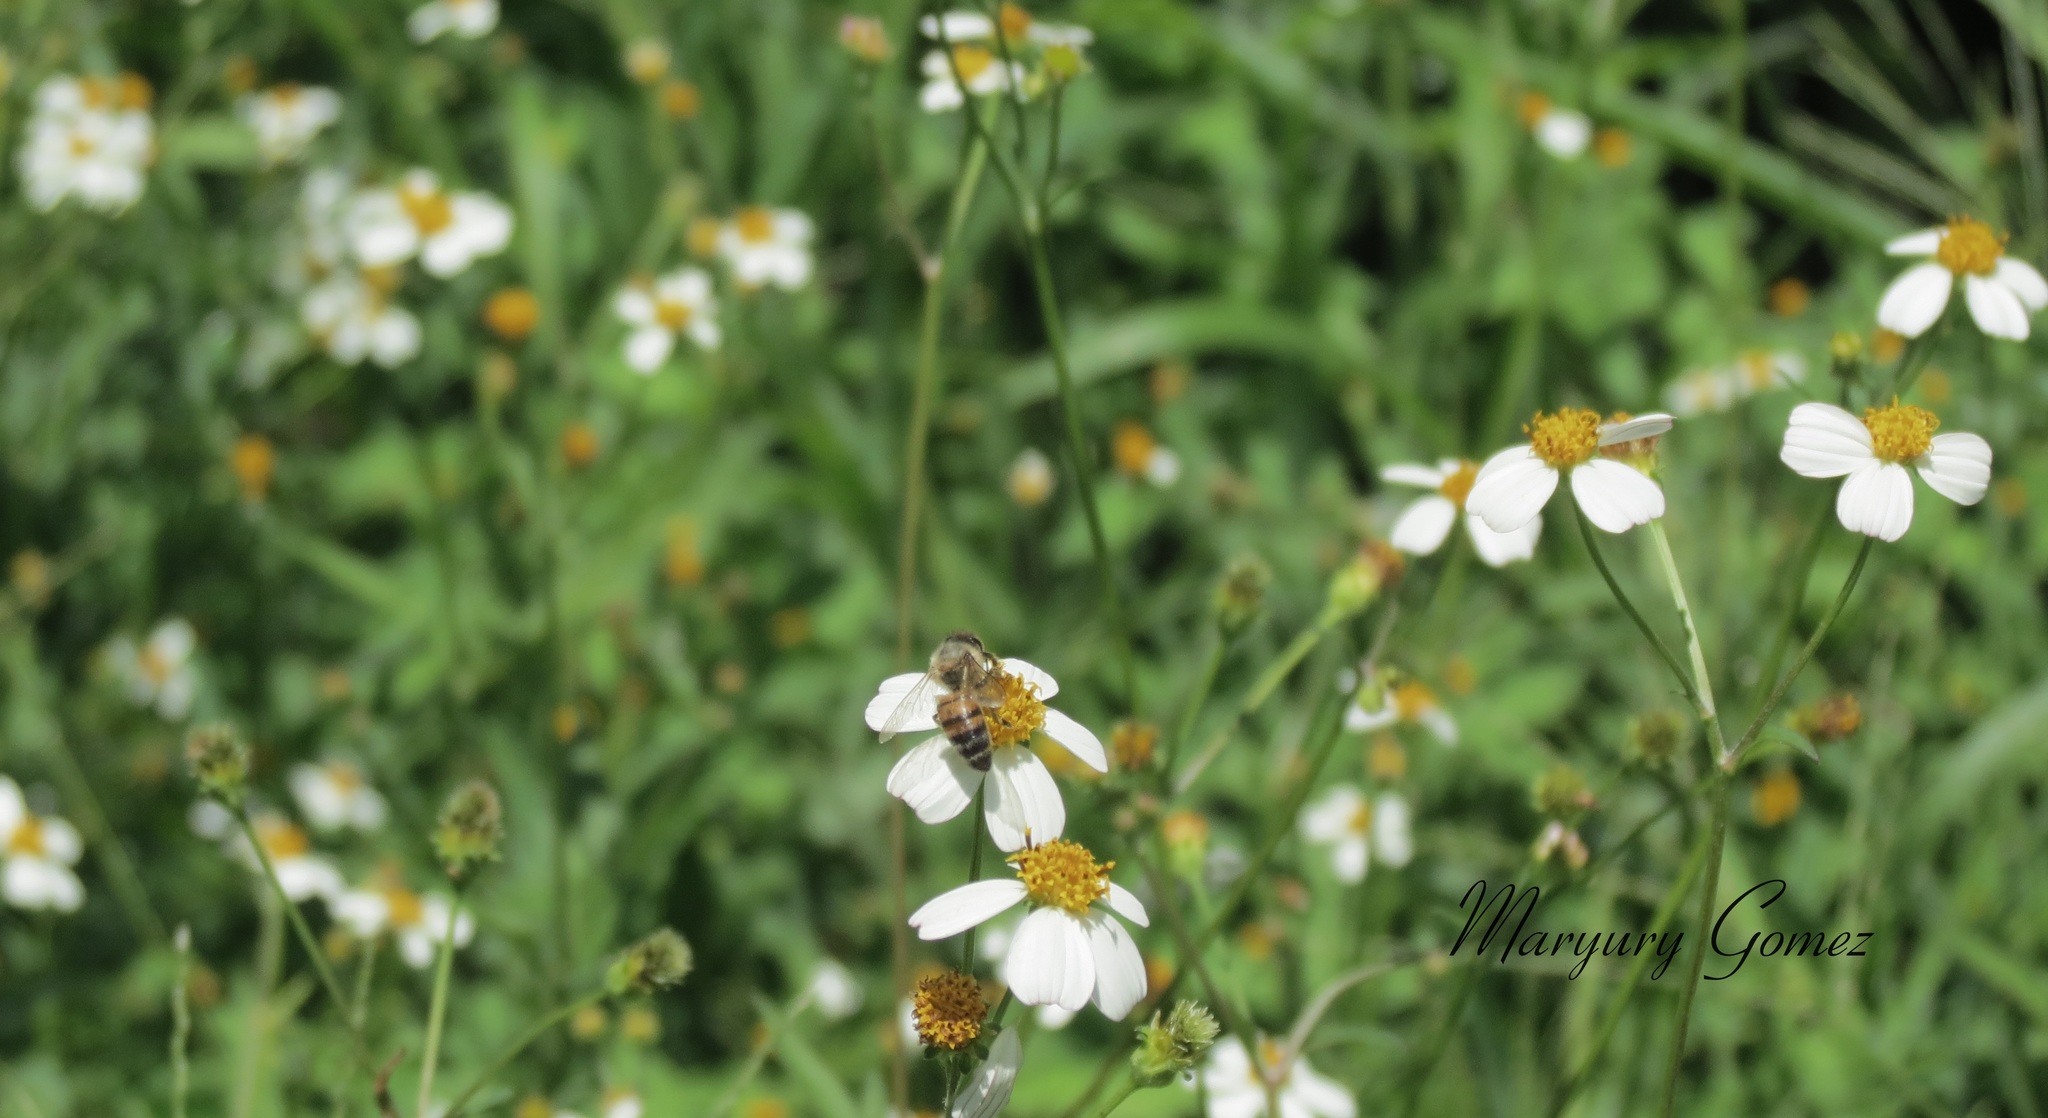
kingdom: Plantae
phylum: Tracheophyta
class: Magnoliopsida
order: Asterales
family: Asteraceae
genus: Bidens
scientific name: Bidens alba
